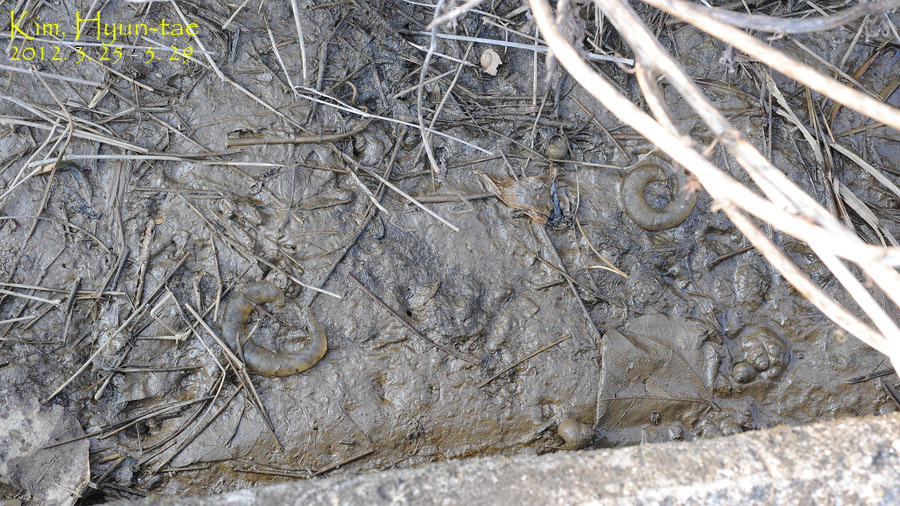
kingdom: Animalia
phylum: Chordata
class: Amphibia
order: Caudata
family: Hynobiidae
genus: Hynobius
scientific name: Hynobius quelpaertensis
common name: Cheju salamander
